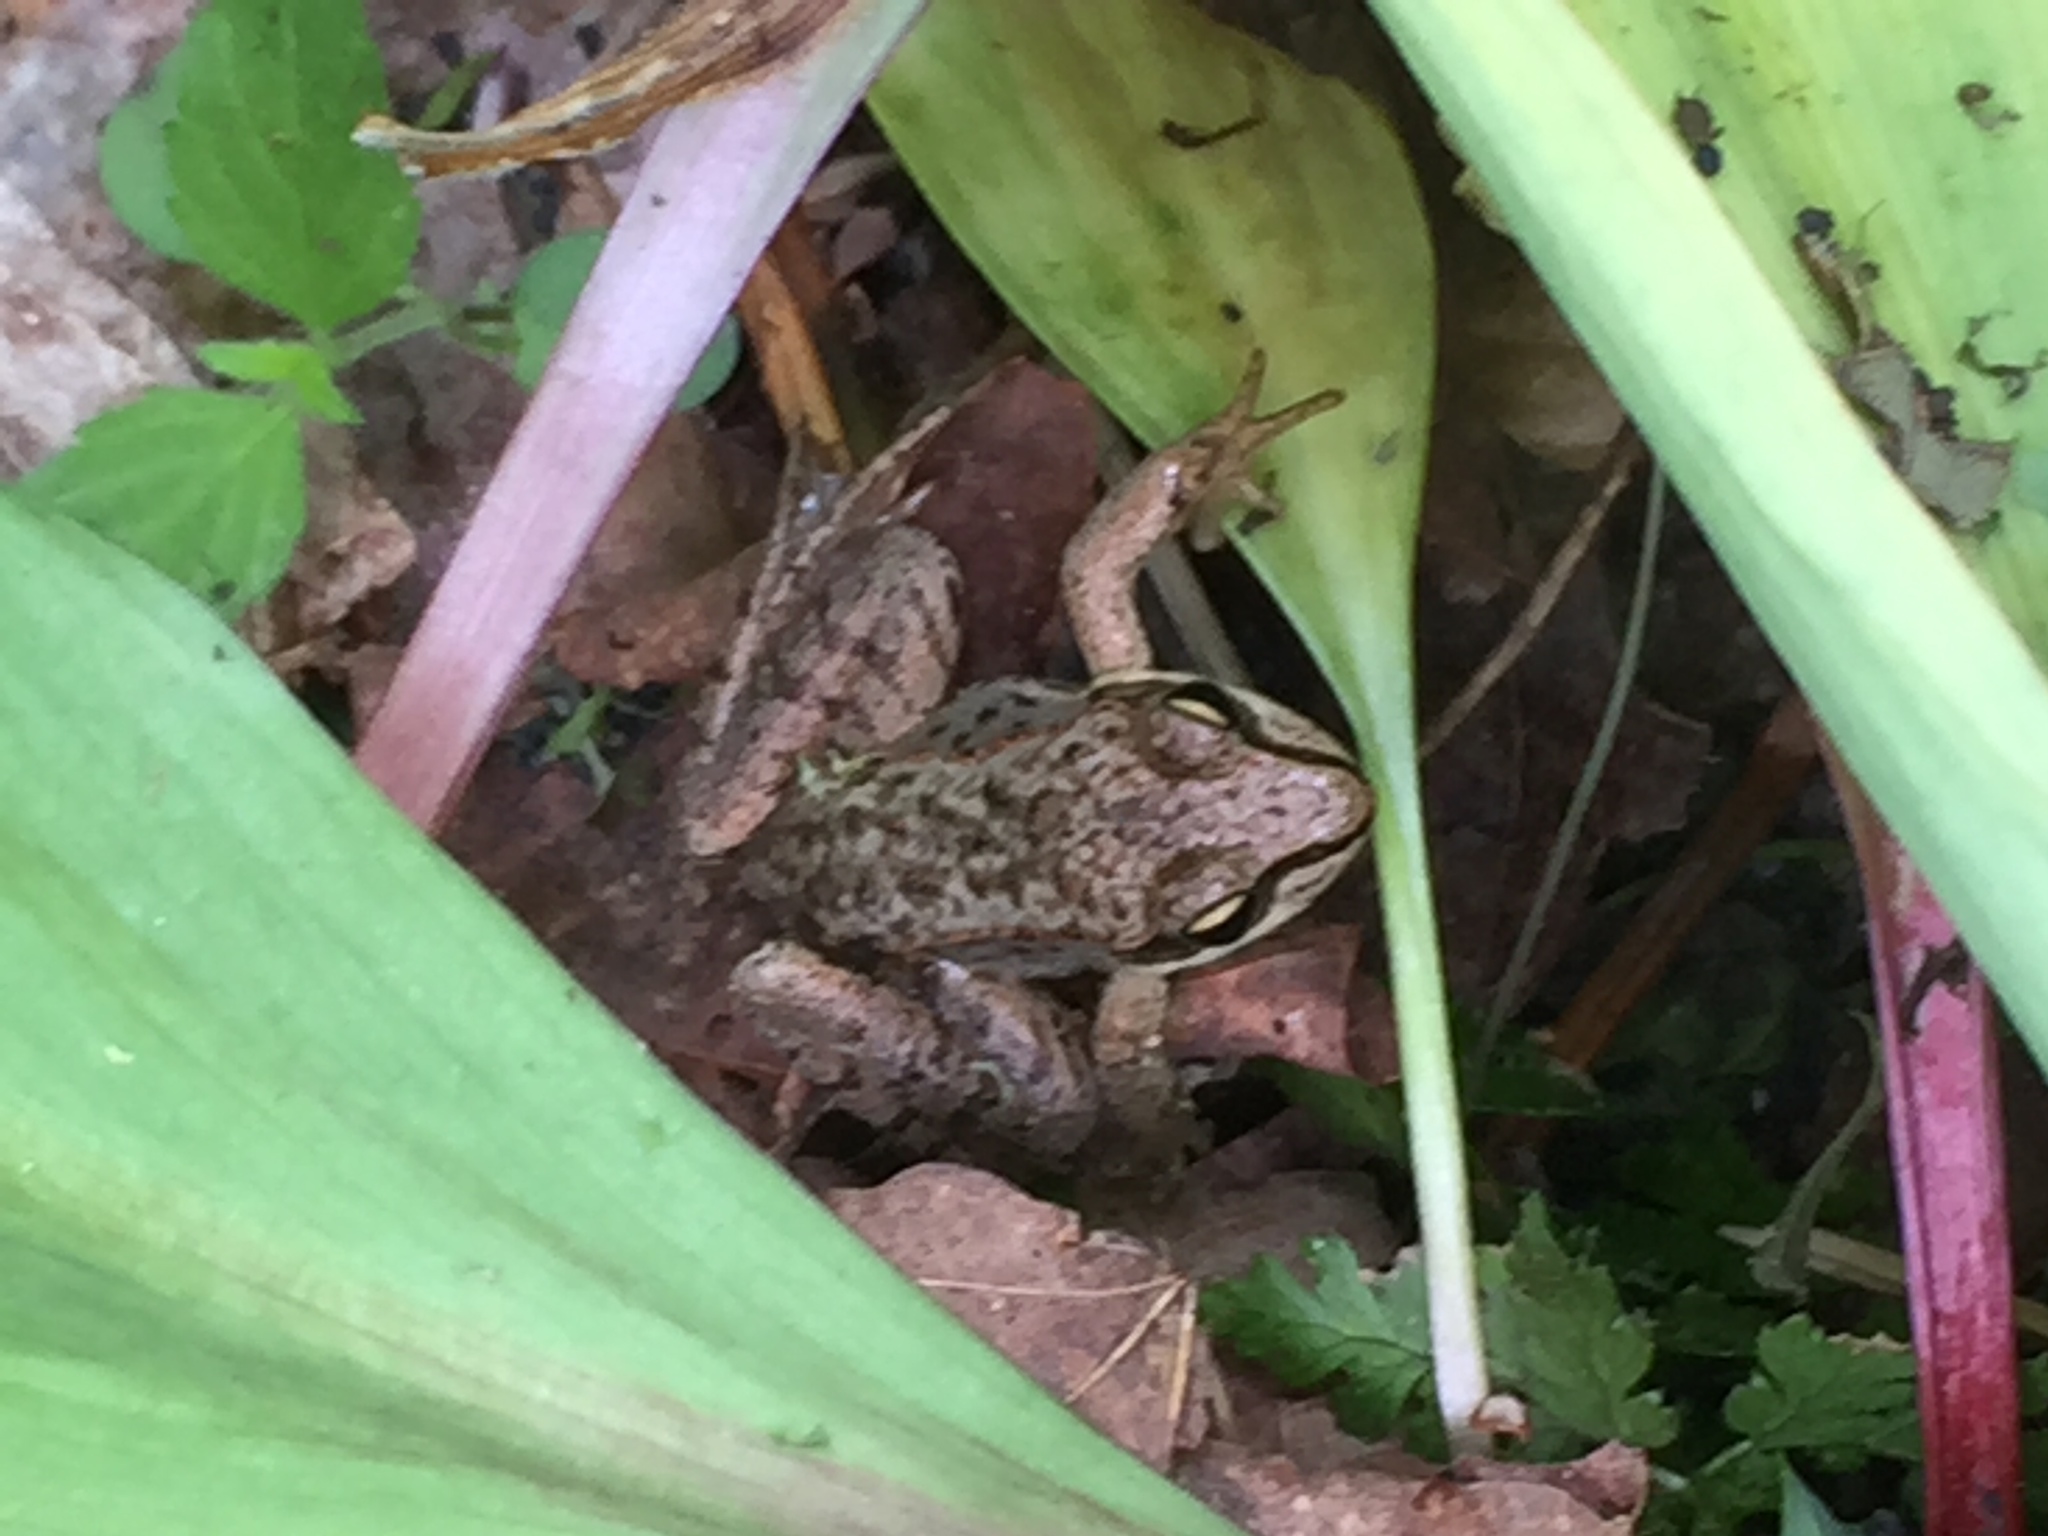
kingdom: Animalia
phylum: Chordata
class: Amphibia
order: Anura
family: Ranidae
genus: Lithobates
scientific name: Lithobates sylvaticus
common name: Wood frog
